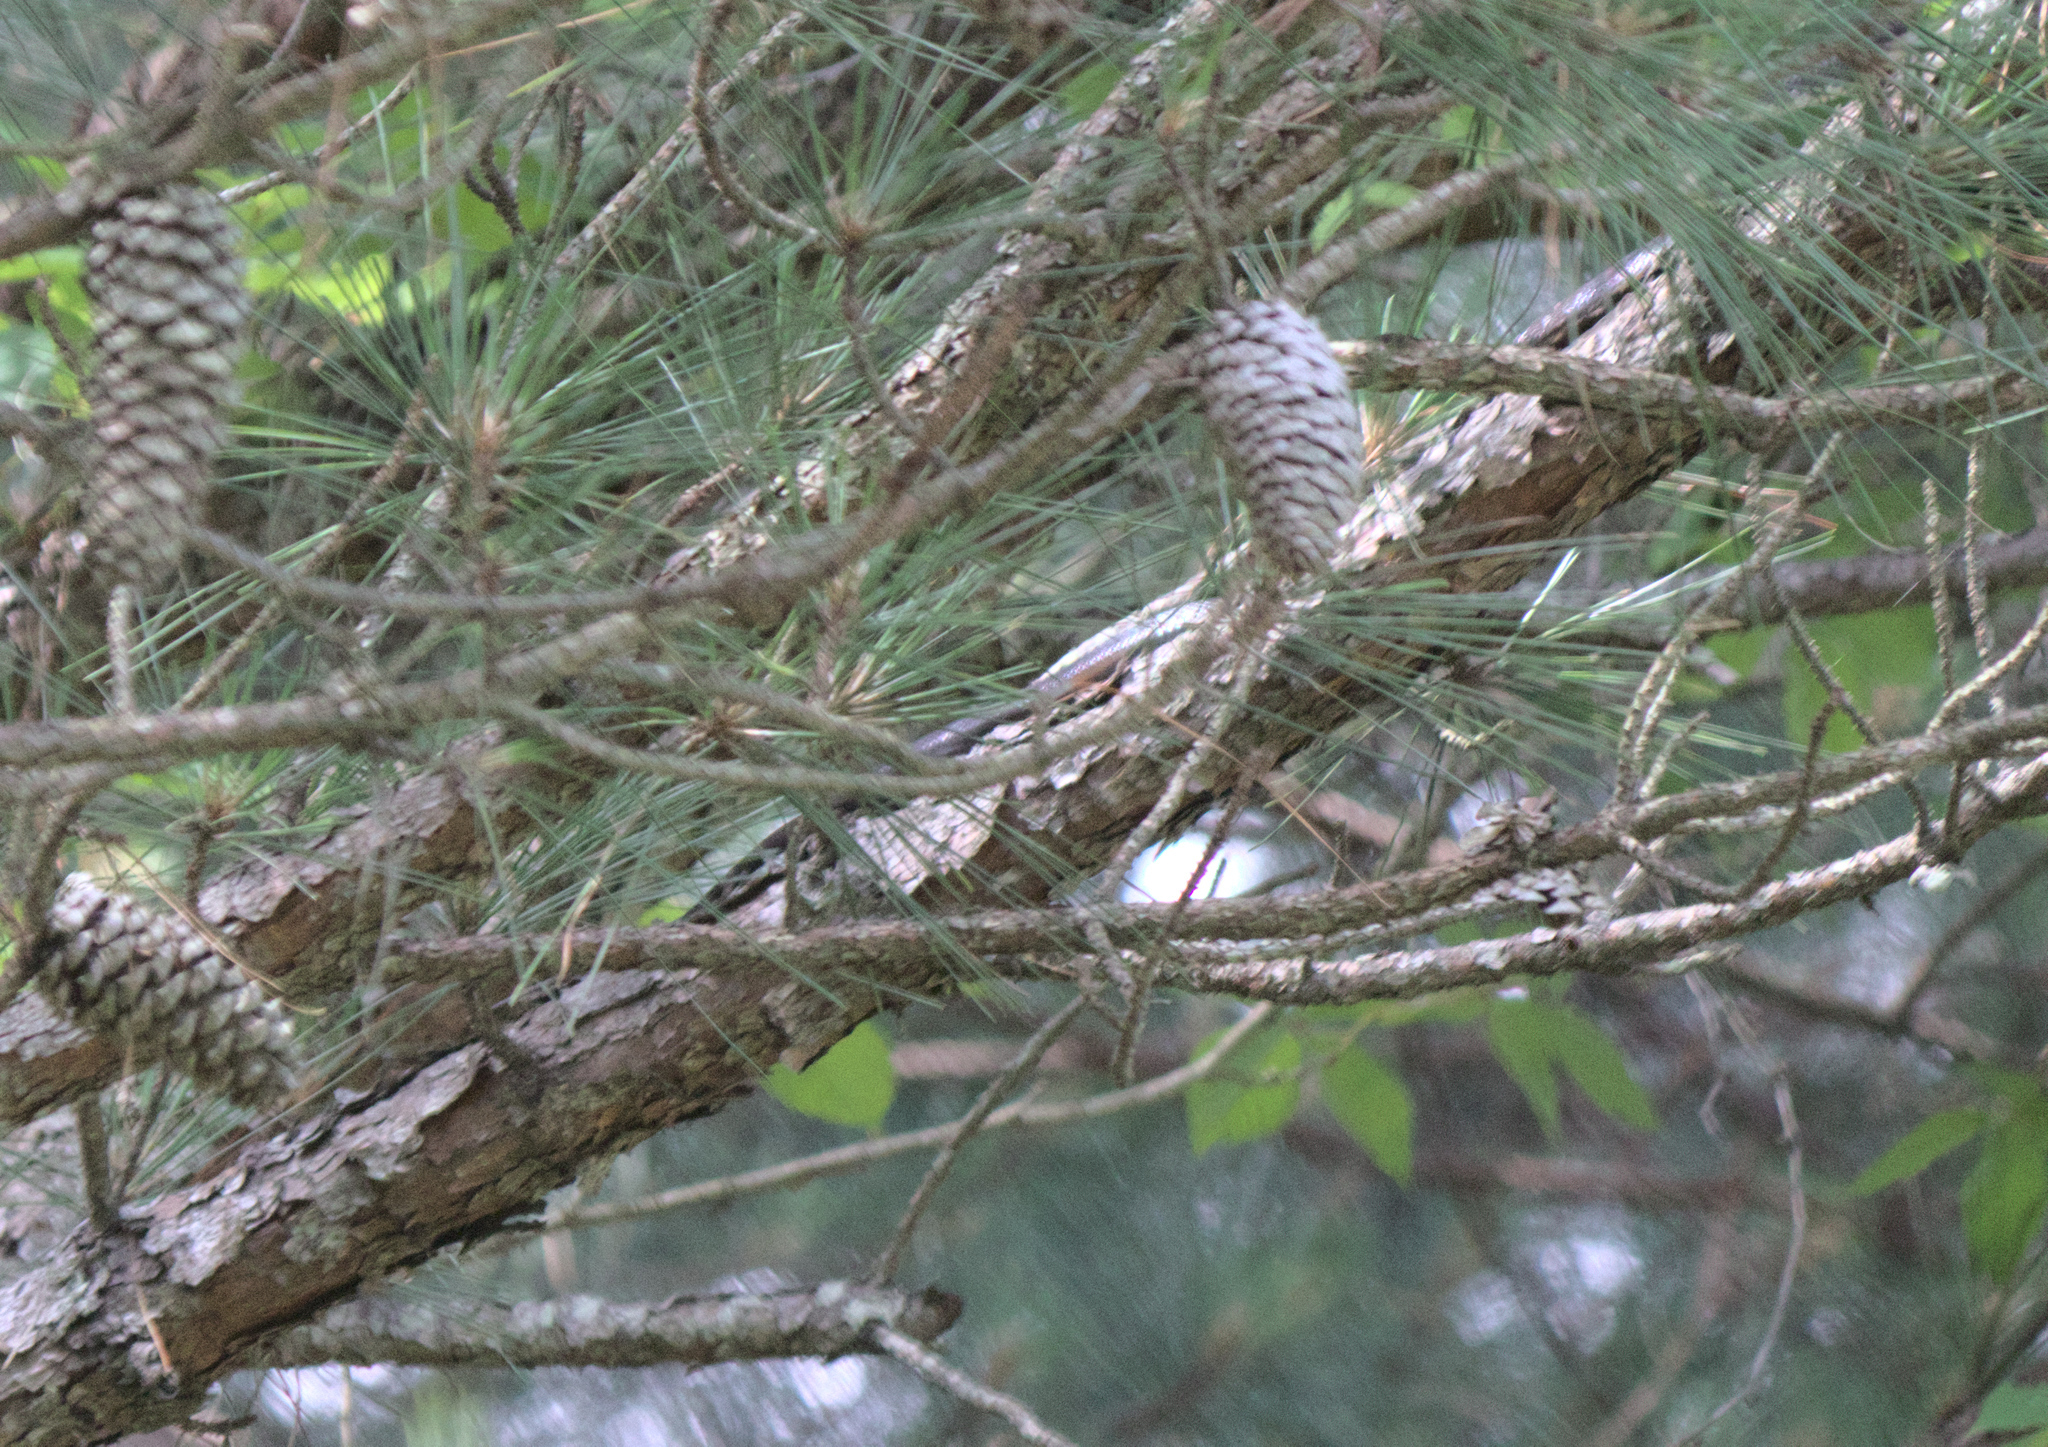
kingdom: Animalia
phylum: Chordata
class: Squamata
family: Colubridae
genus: Pantherophis
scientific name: Pantherophis alleghaniensis
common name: Eastern rat snake
